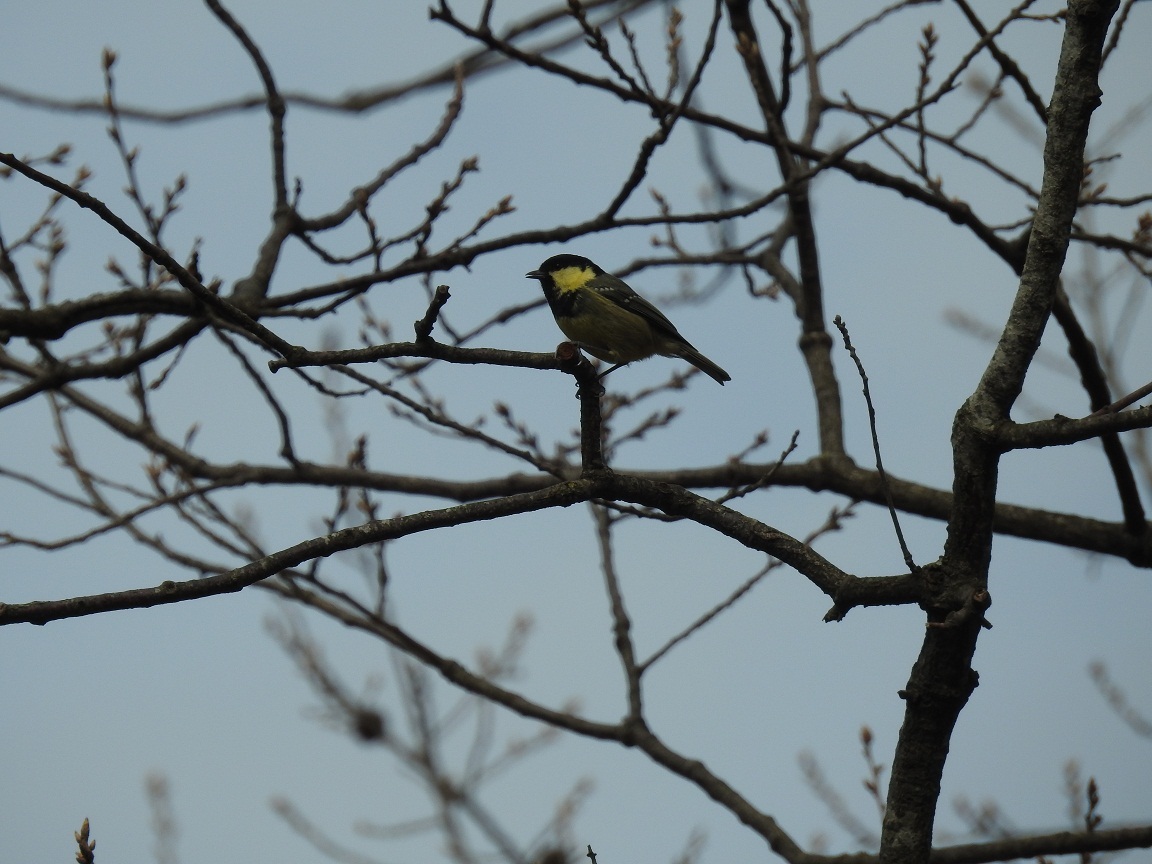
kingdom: Animalia
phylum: Chordata
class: Aves
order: Passeriformes
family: Paridae
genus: Periparus
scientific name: Periparus ater
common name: Coal tit
